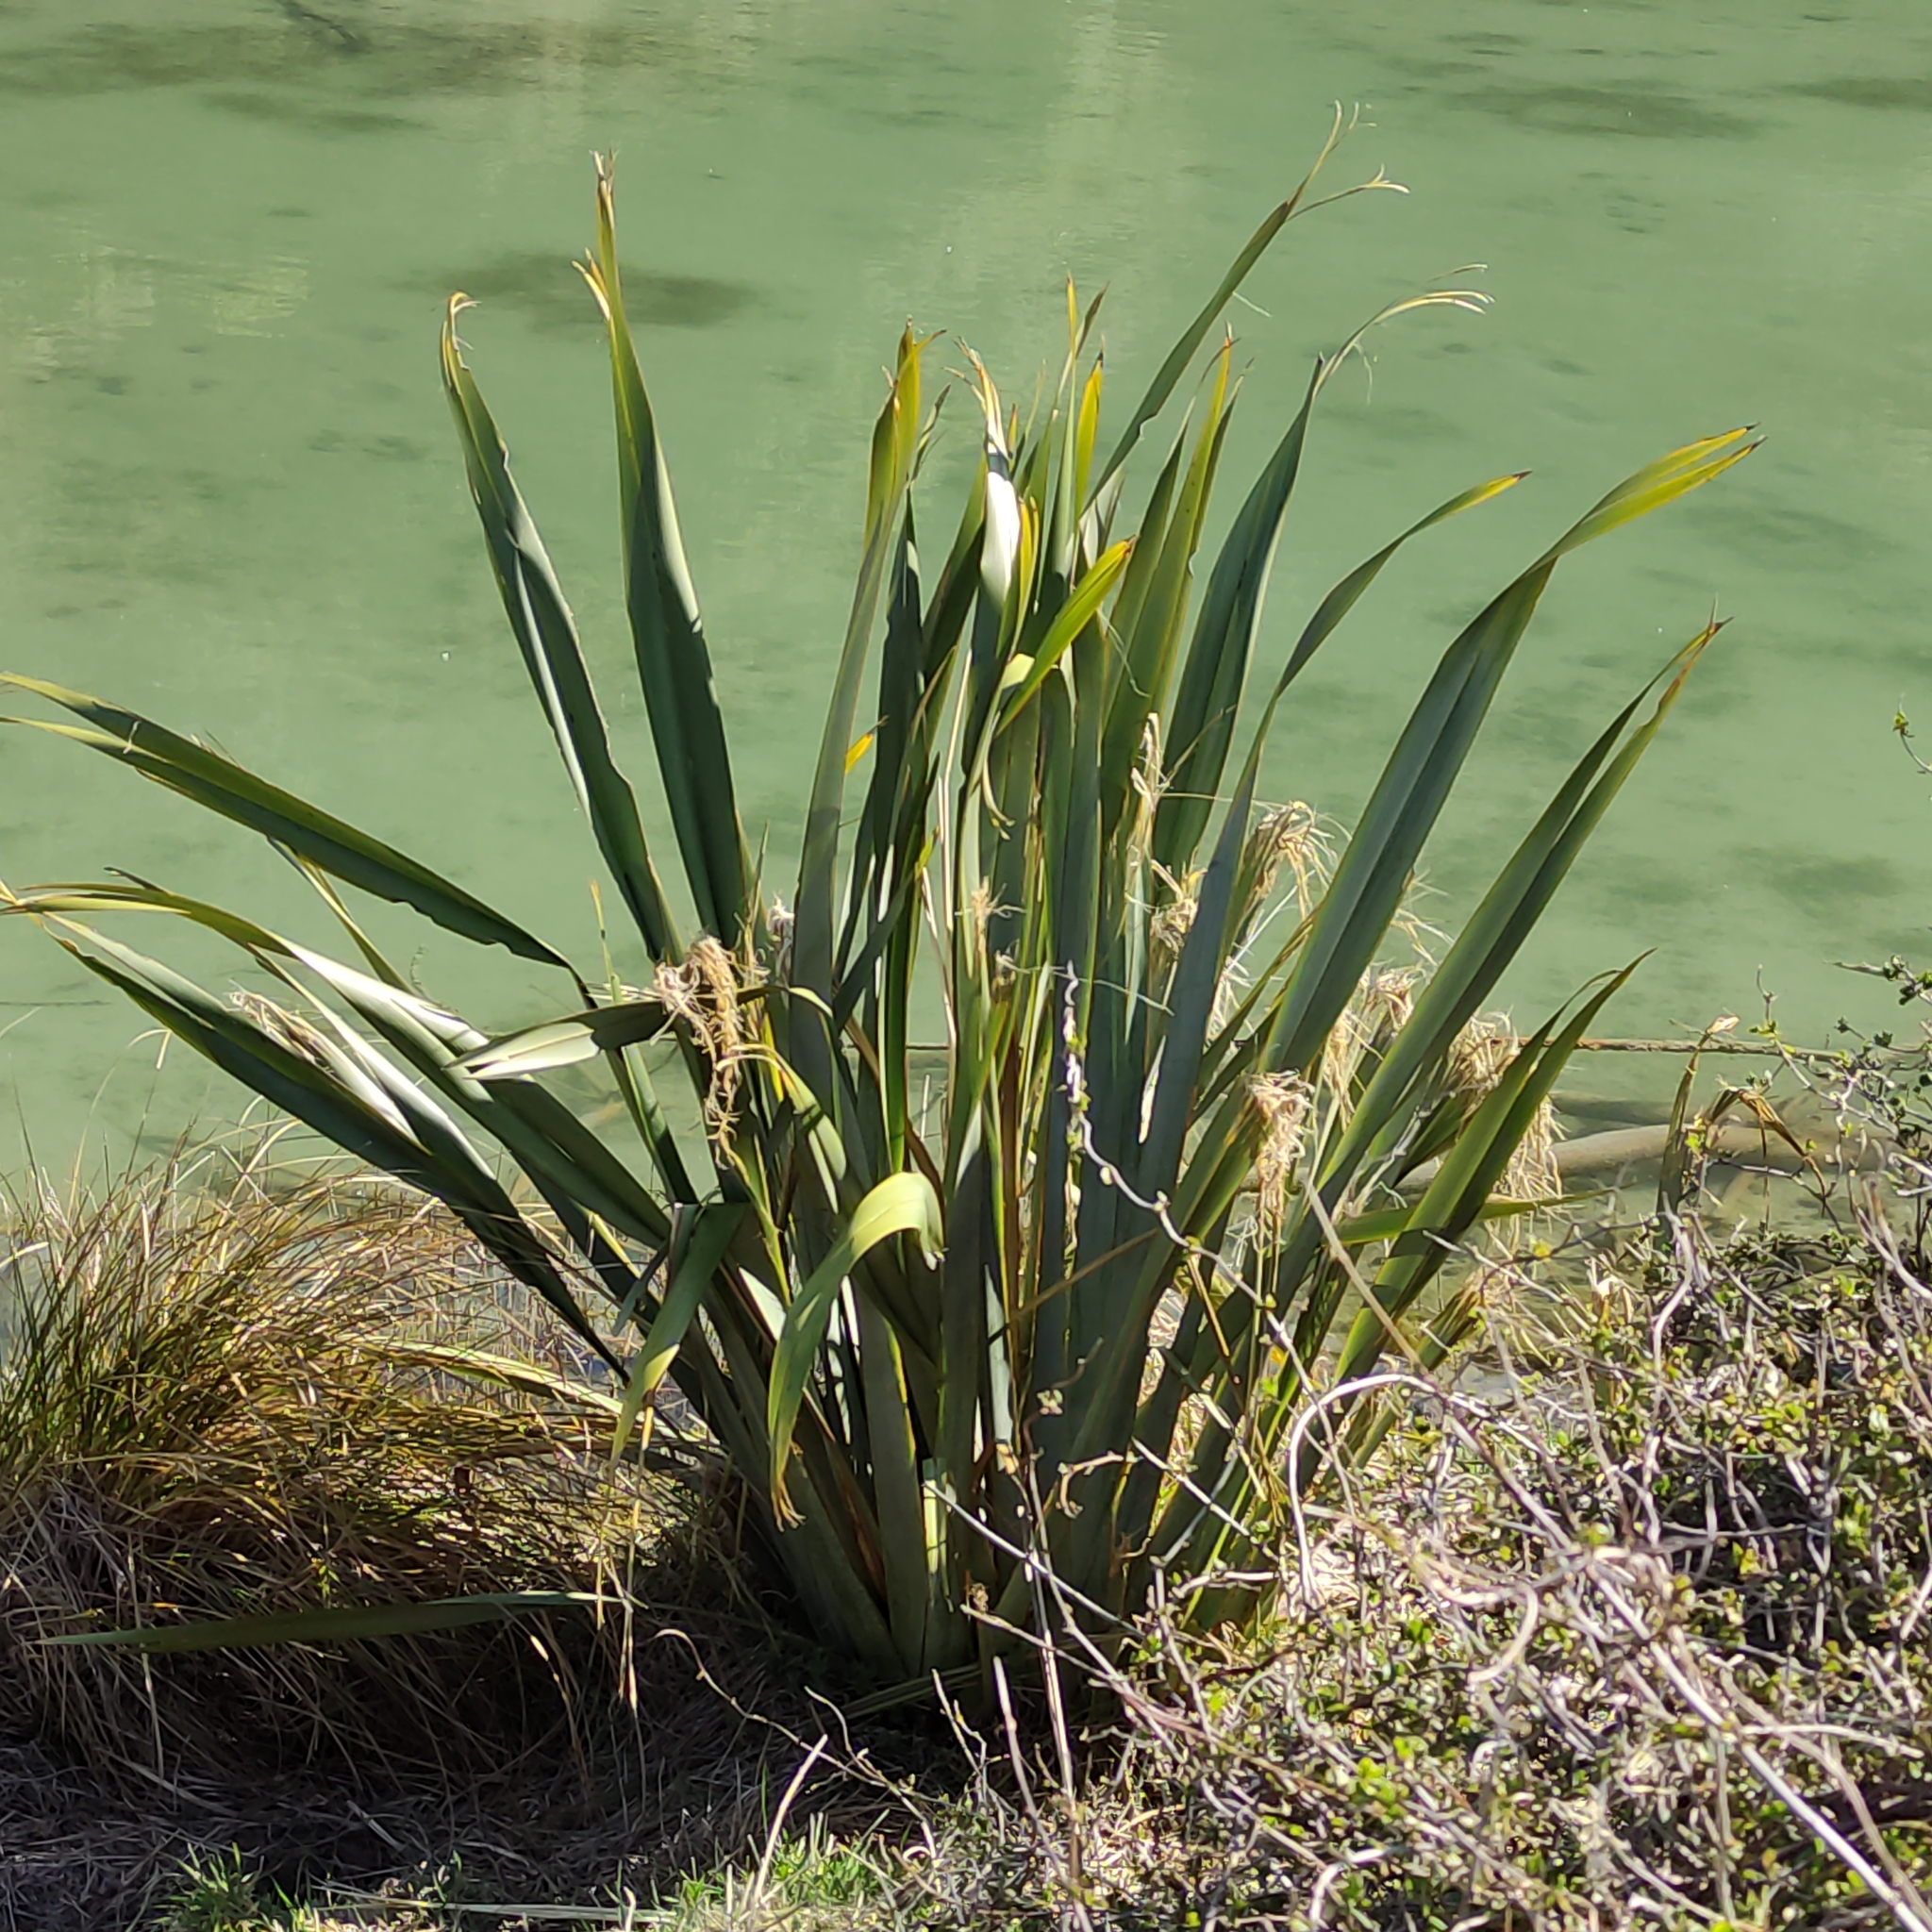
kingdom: Plantae
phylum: Tracheophyta
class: Liliopsida
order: Asparagales
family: Asphodelaceae
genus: Phormium
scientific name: Phormium tenax
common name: New zealand flax
